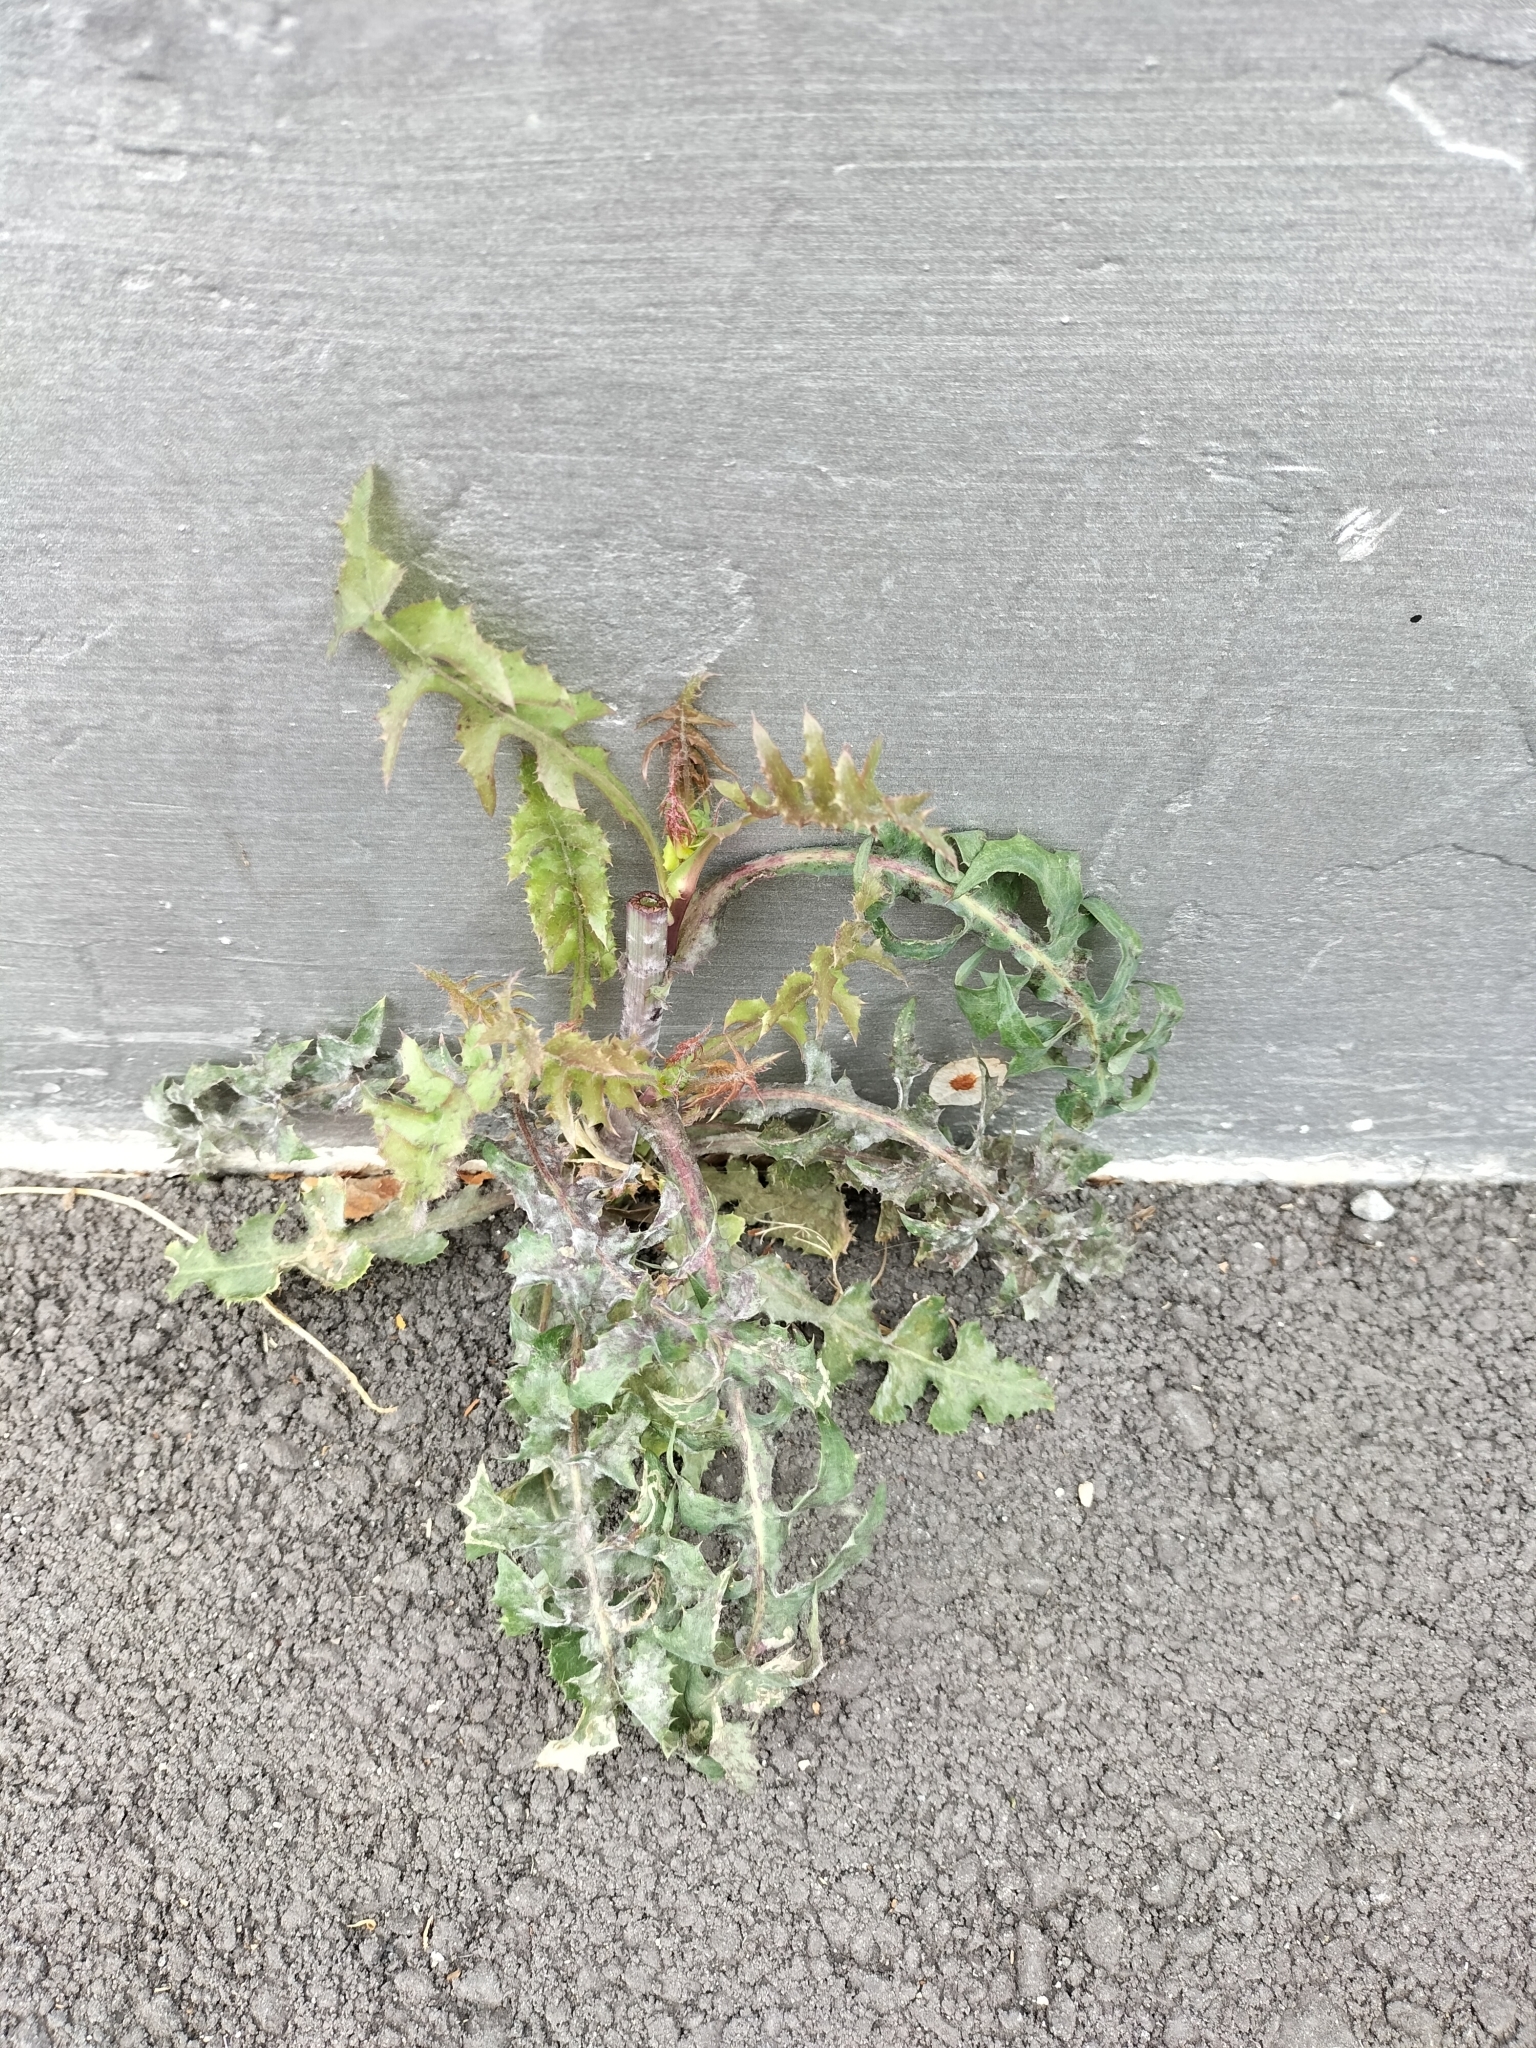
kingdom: Plantae
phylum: Tracheophyta
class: Magnoliopsida
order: Asterales
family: Asteraceae
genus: Sonchus
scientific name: Sonchus oleraceus
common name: Common sowthistle
